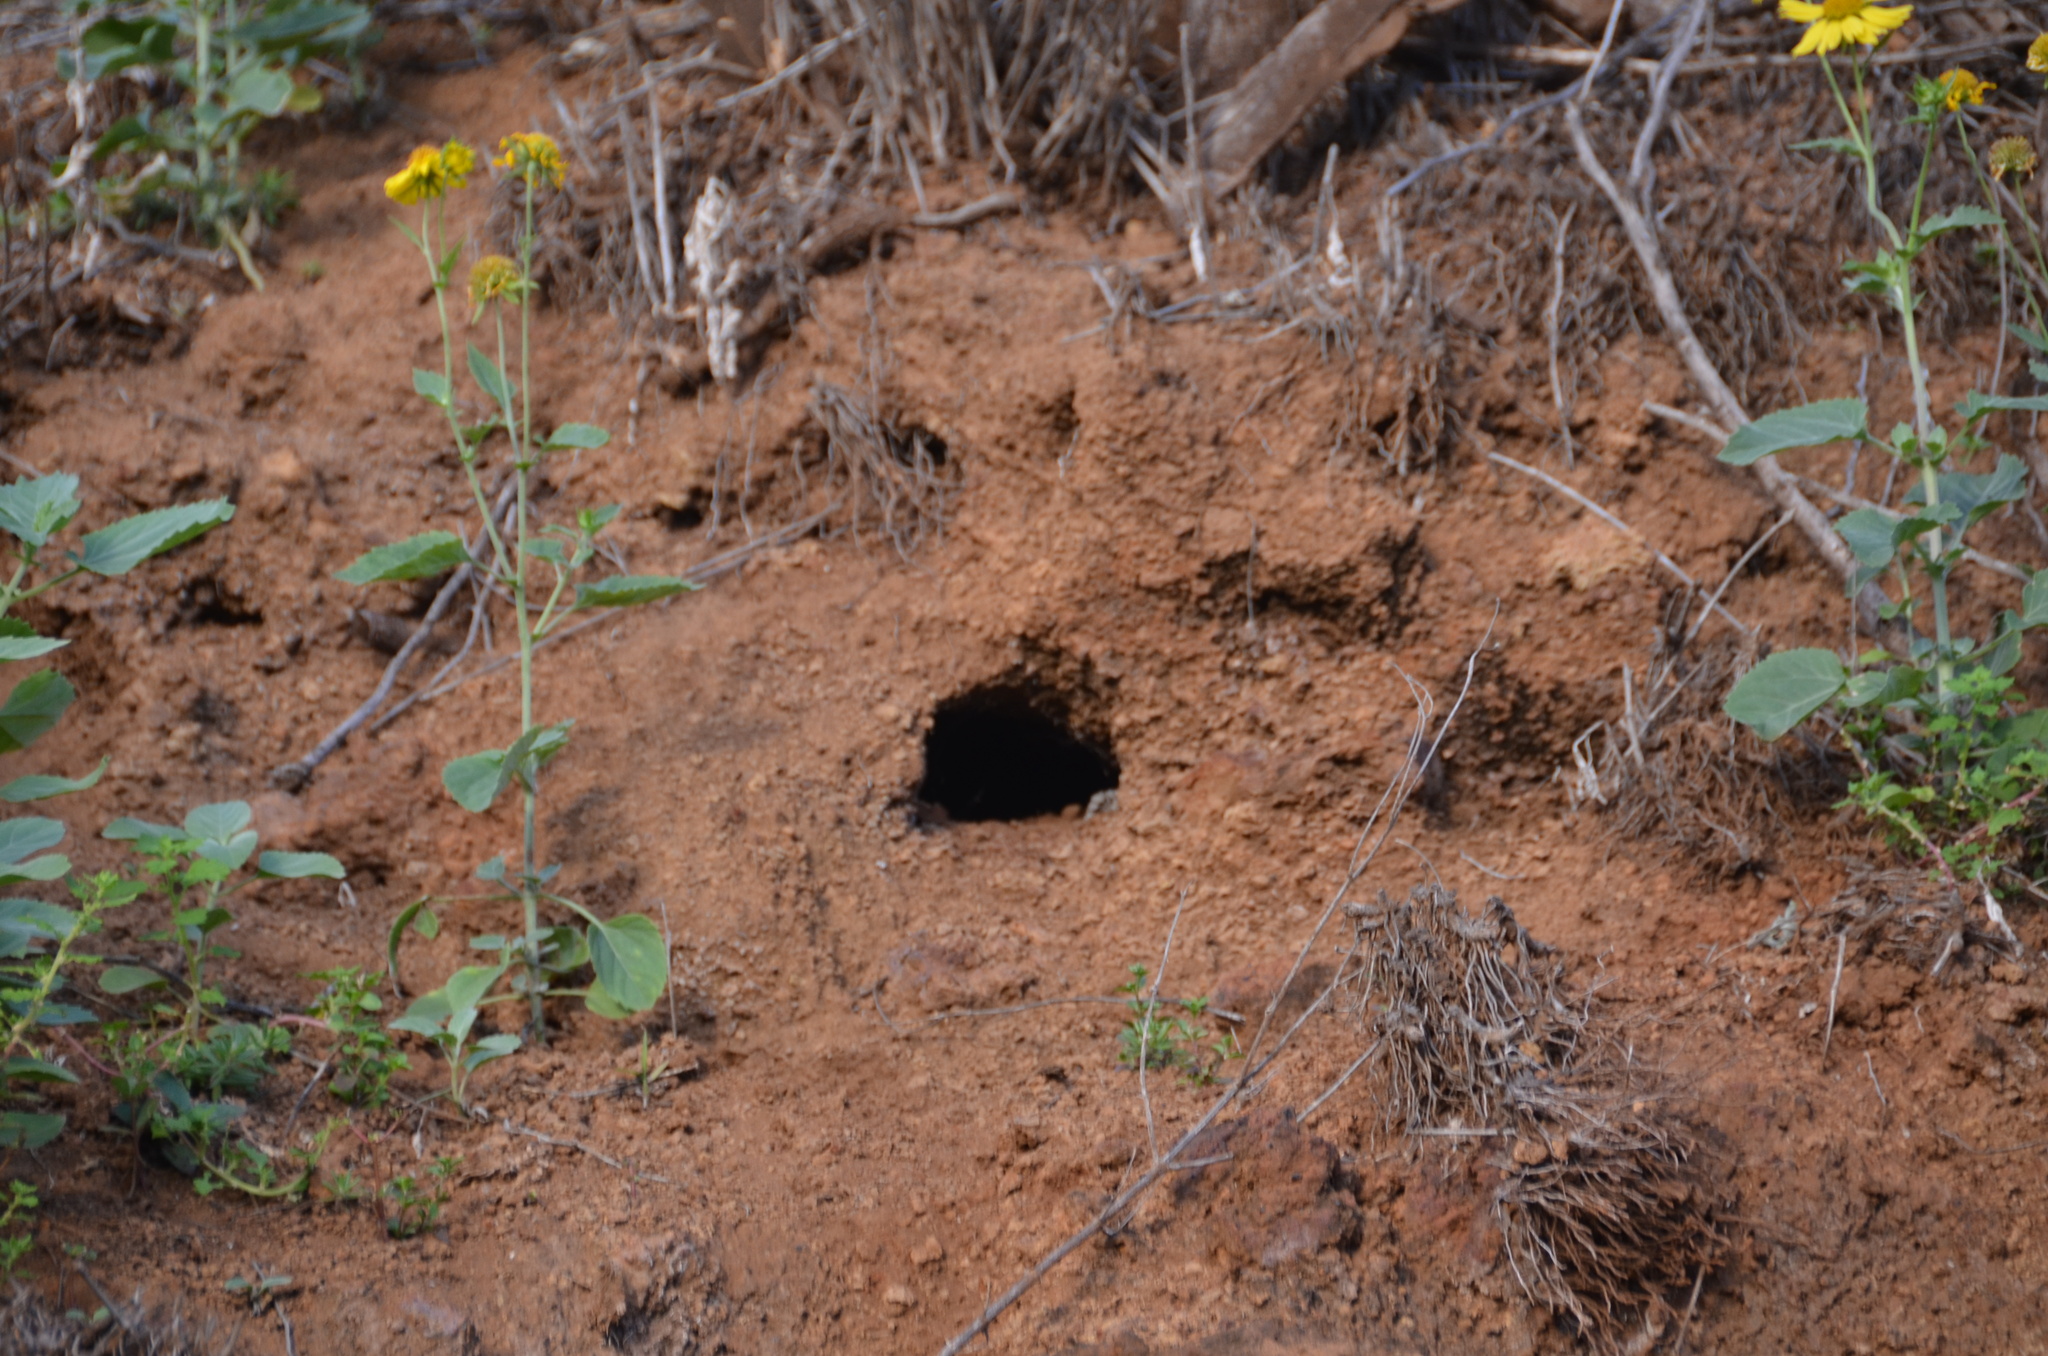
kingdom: Animalia
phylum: Chordata
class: Aves
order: Procellariiformes
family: Procellariidae
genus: Puffinus
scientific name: Puffinus pacificus
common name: Wedge-tailed shearwater
